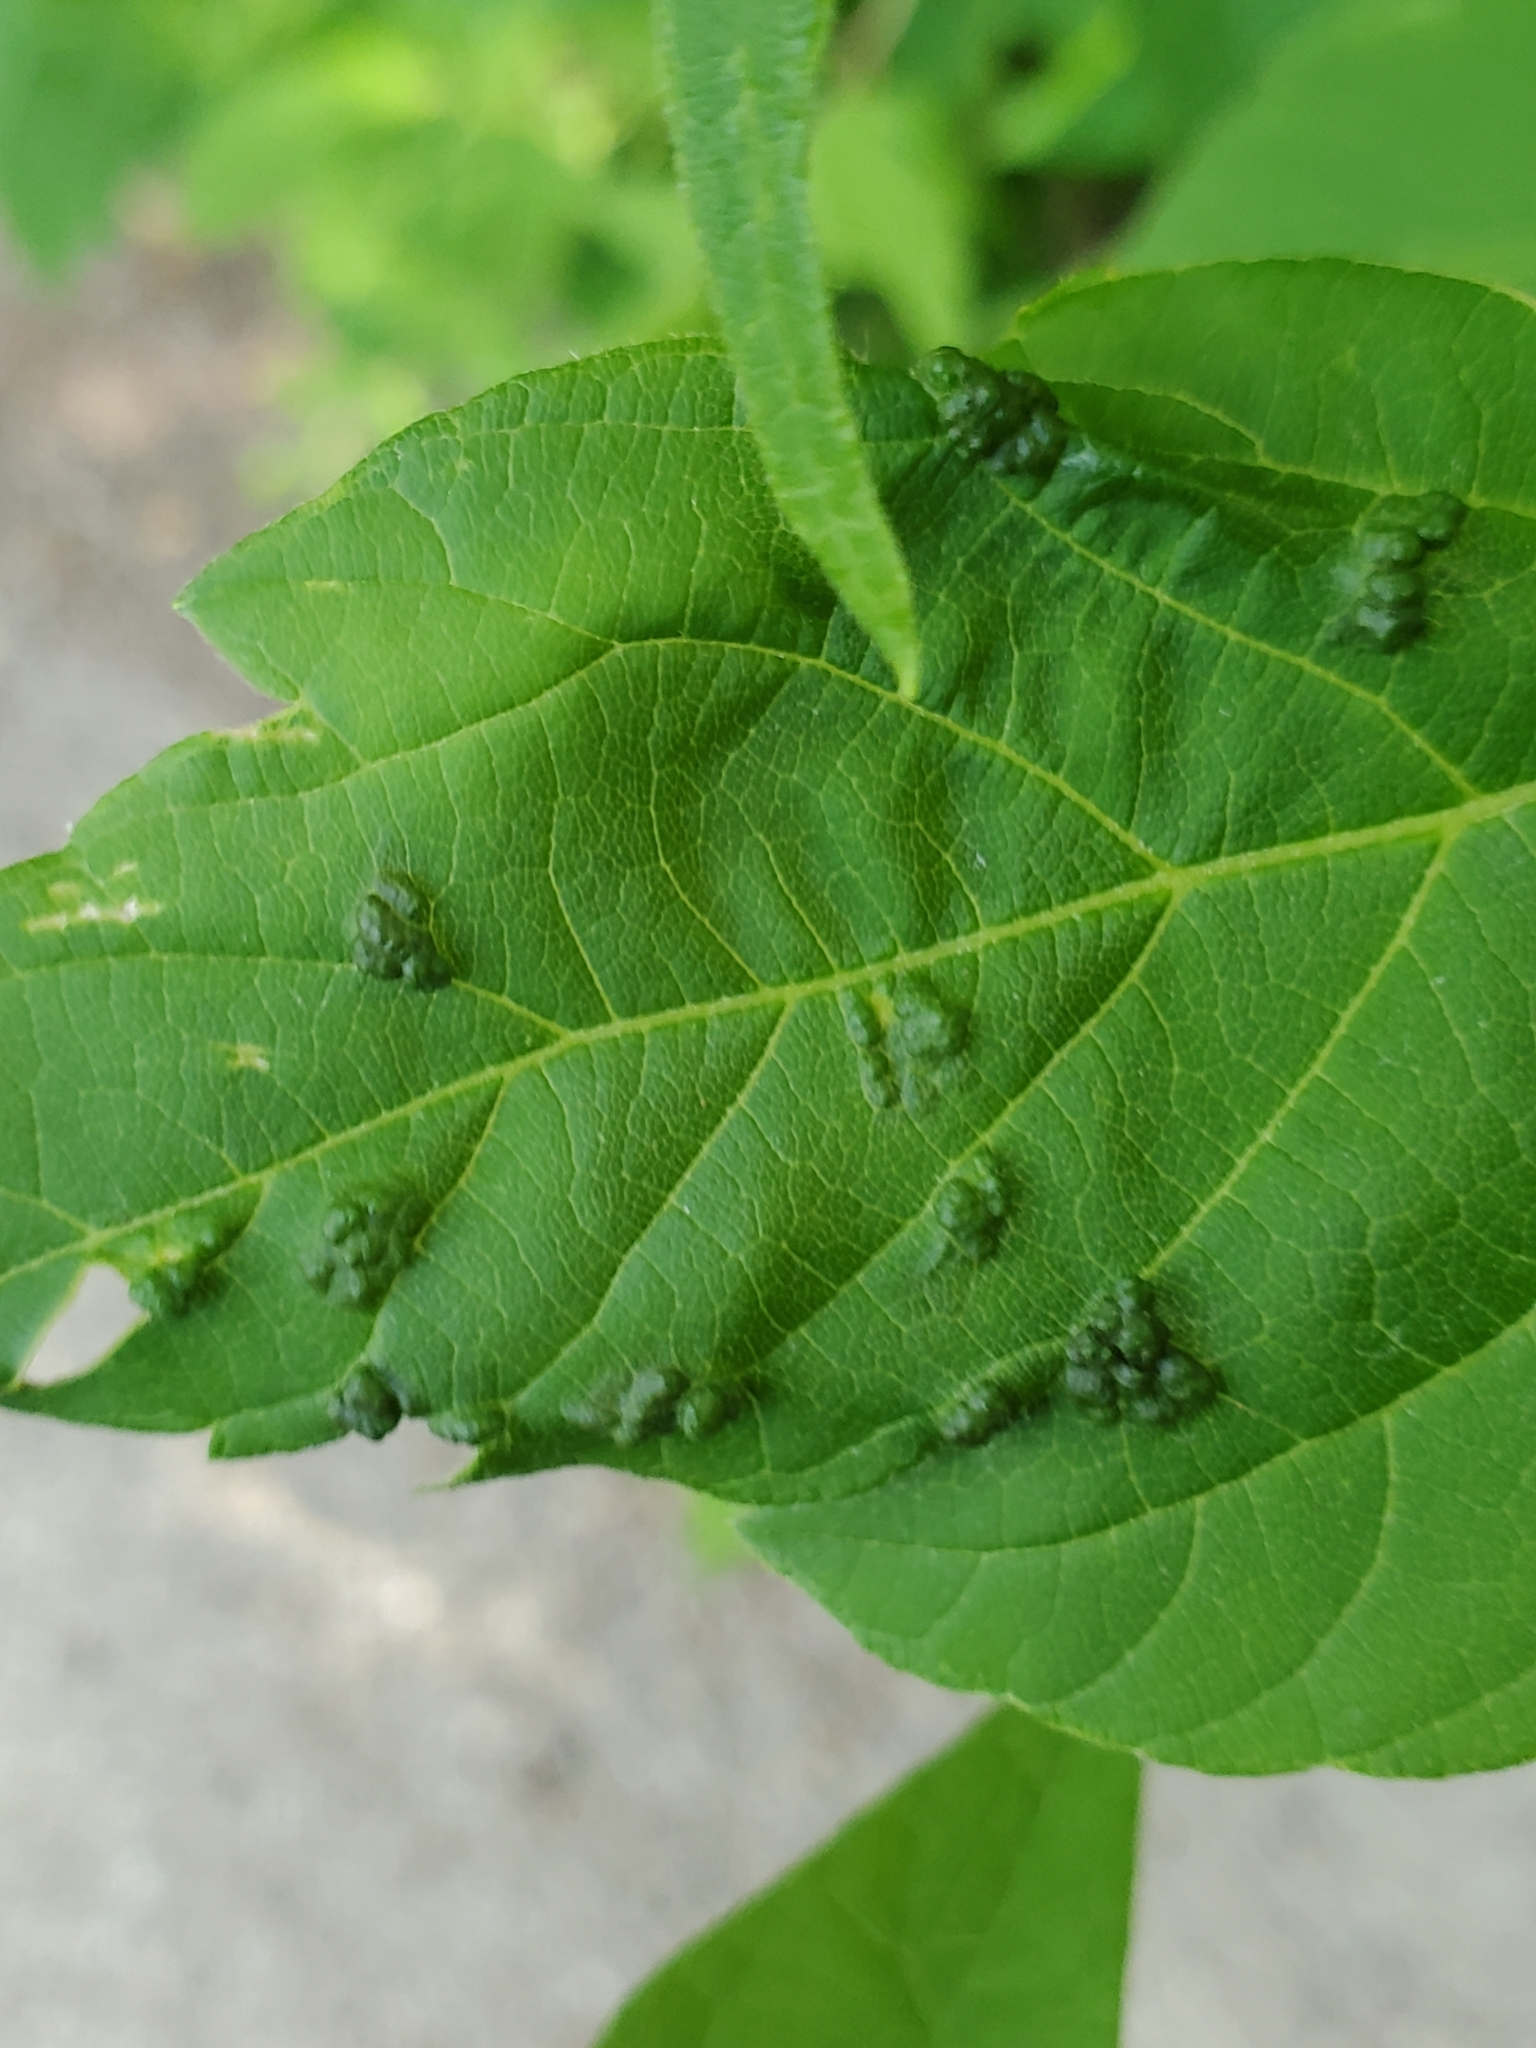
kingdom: Animalia
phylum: Arthropoda
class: Arachnida
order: Trombidiformes
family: Eriophyidae
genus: Aceria
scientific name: Aceria
